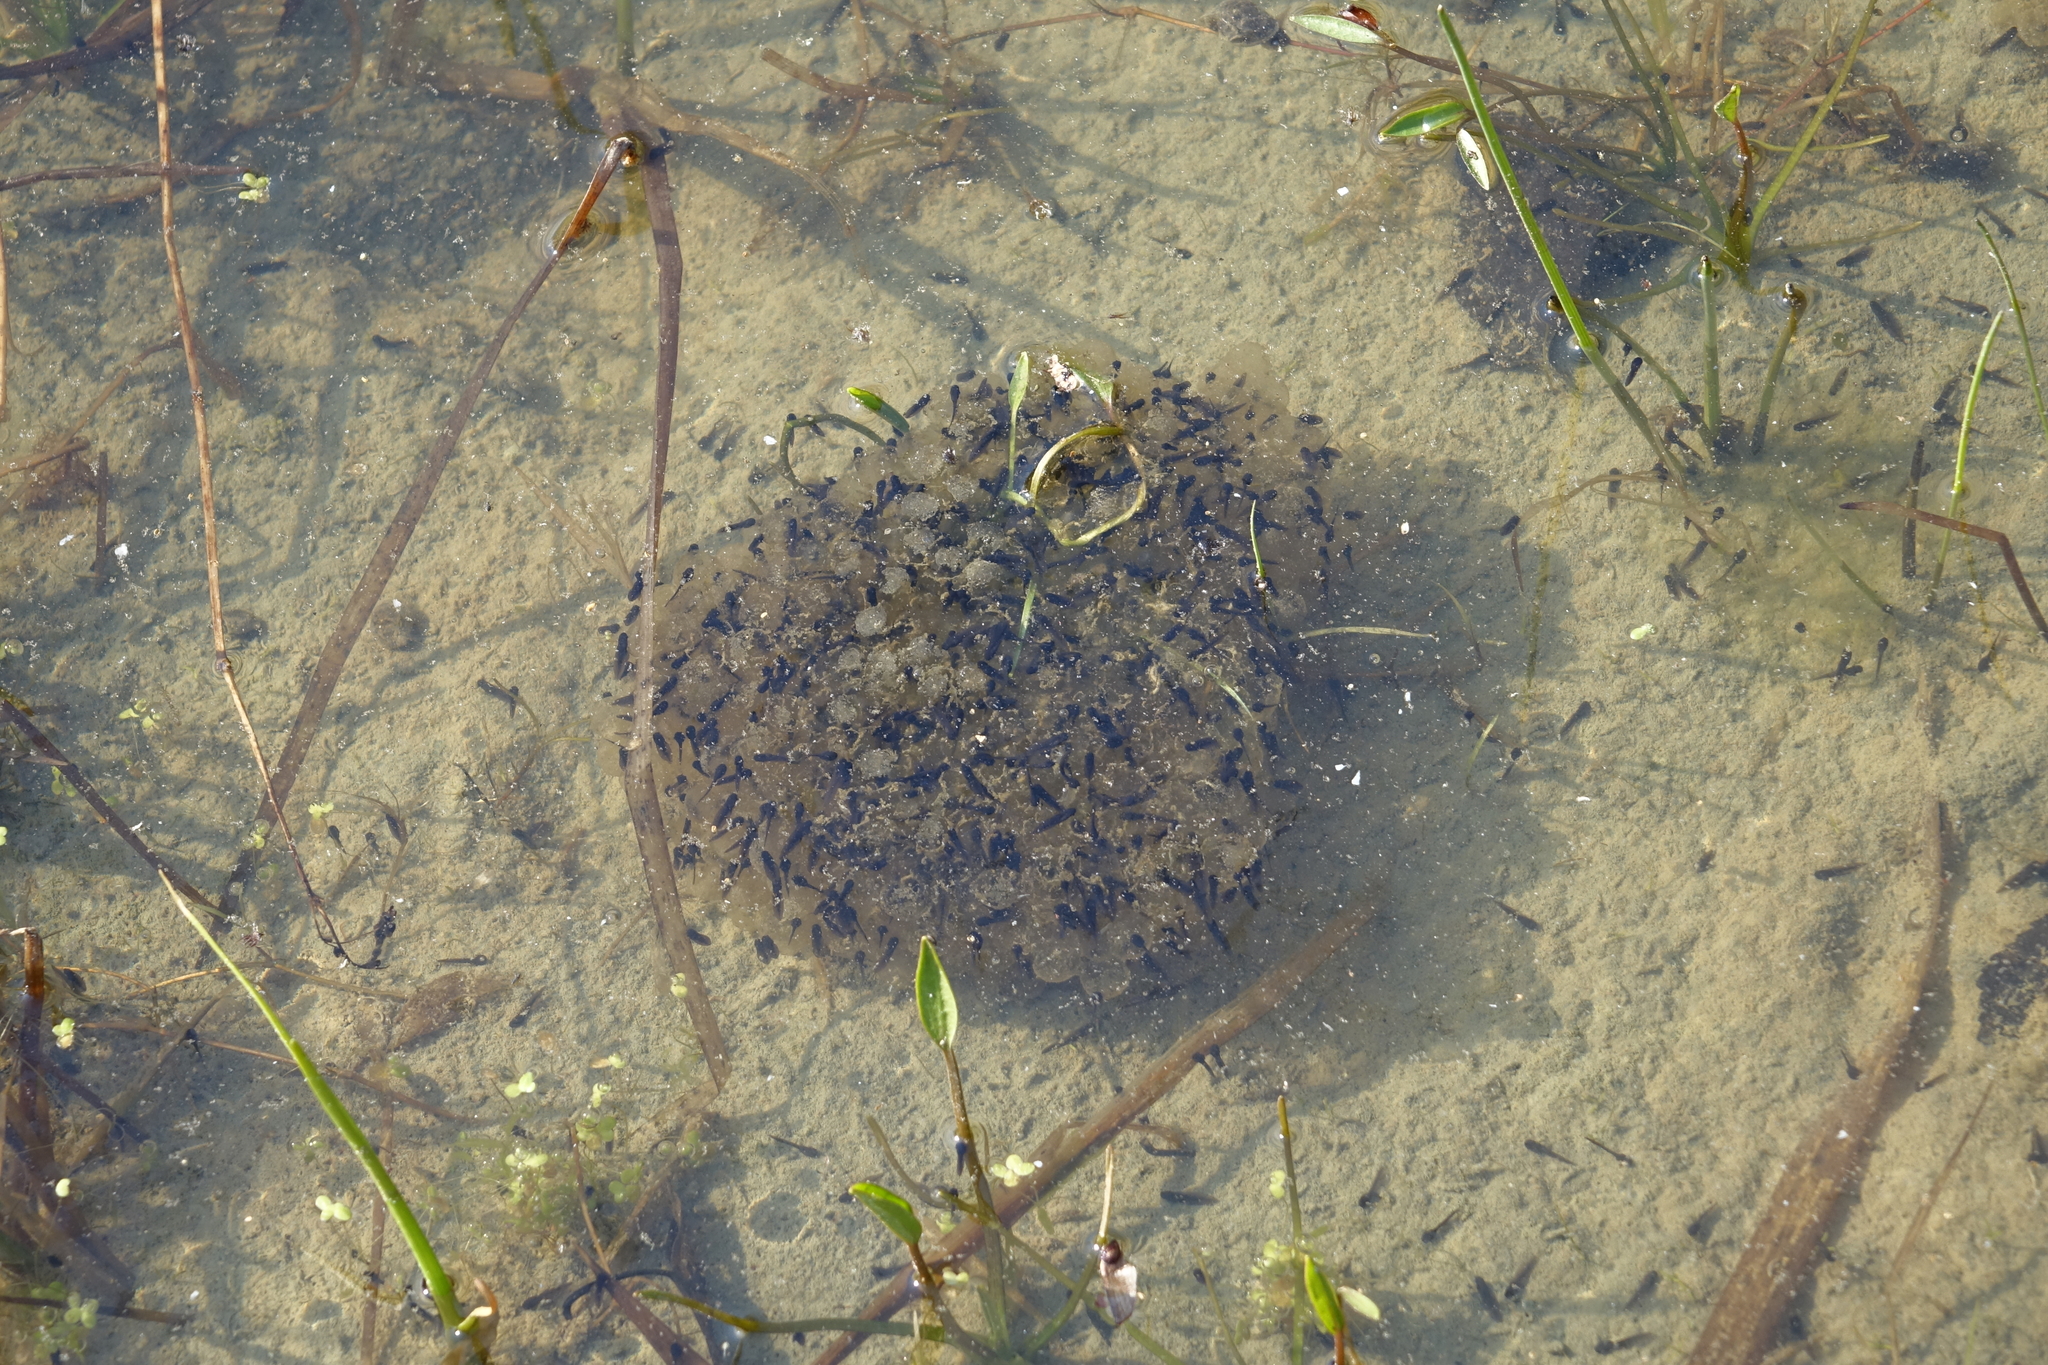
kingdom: Animalia
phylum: Chordata
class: Amphibia
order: Anura
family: Ranidae
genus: Rana
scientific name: Rana arvalis
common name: Moor frog
